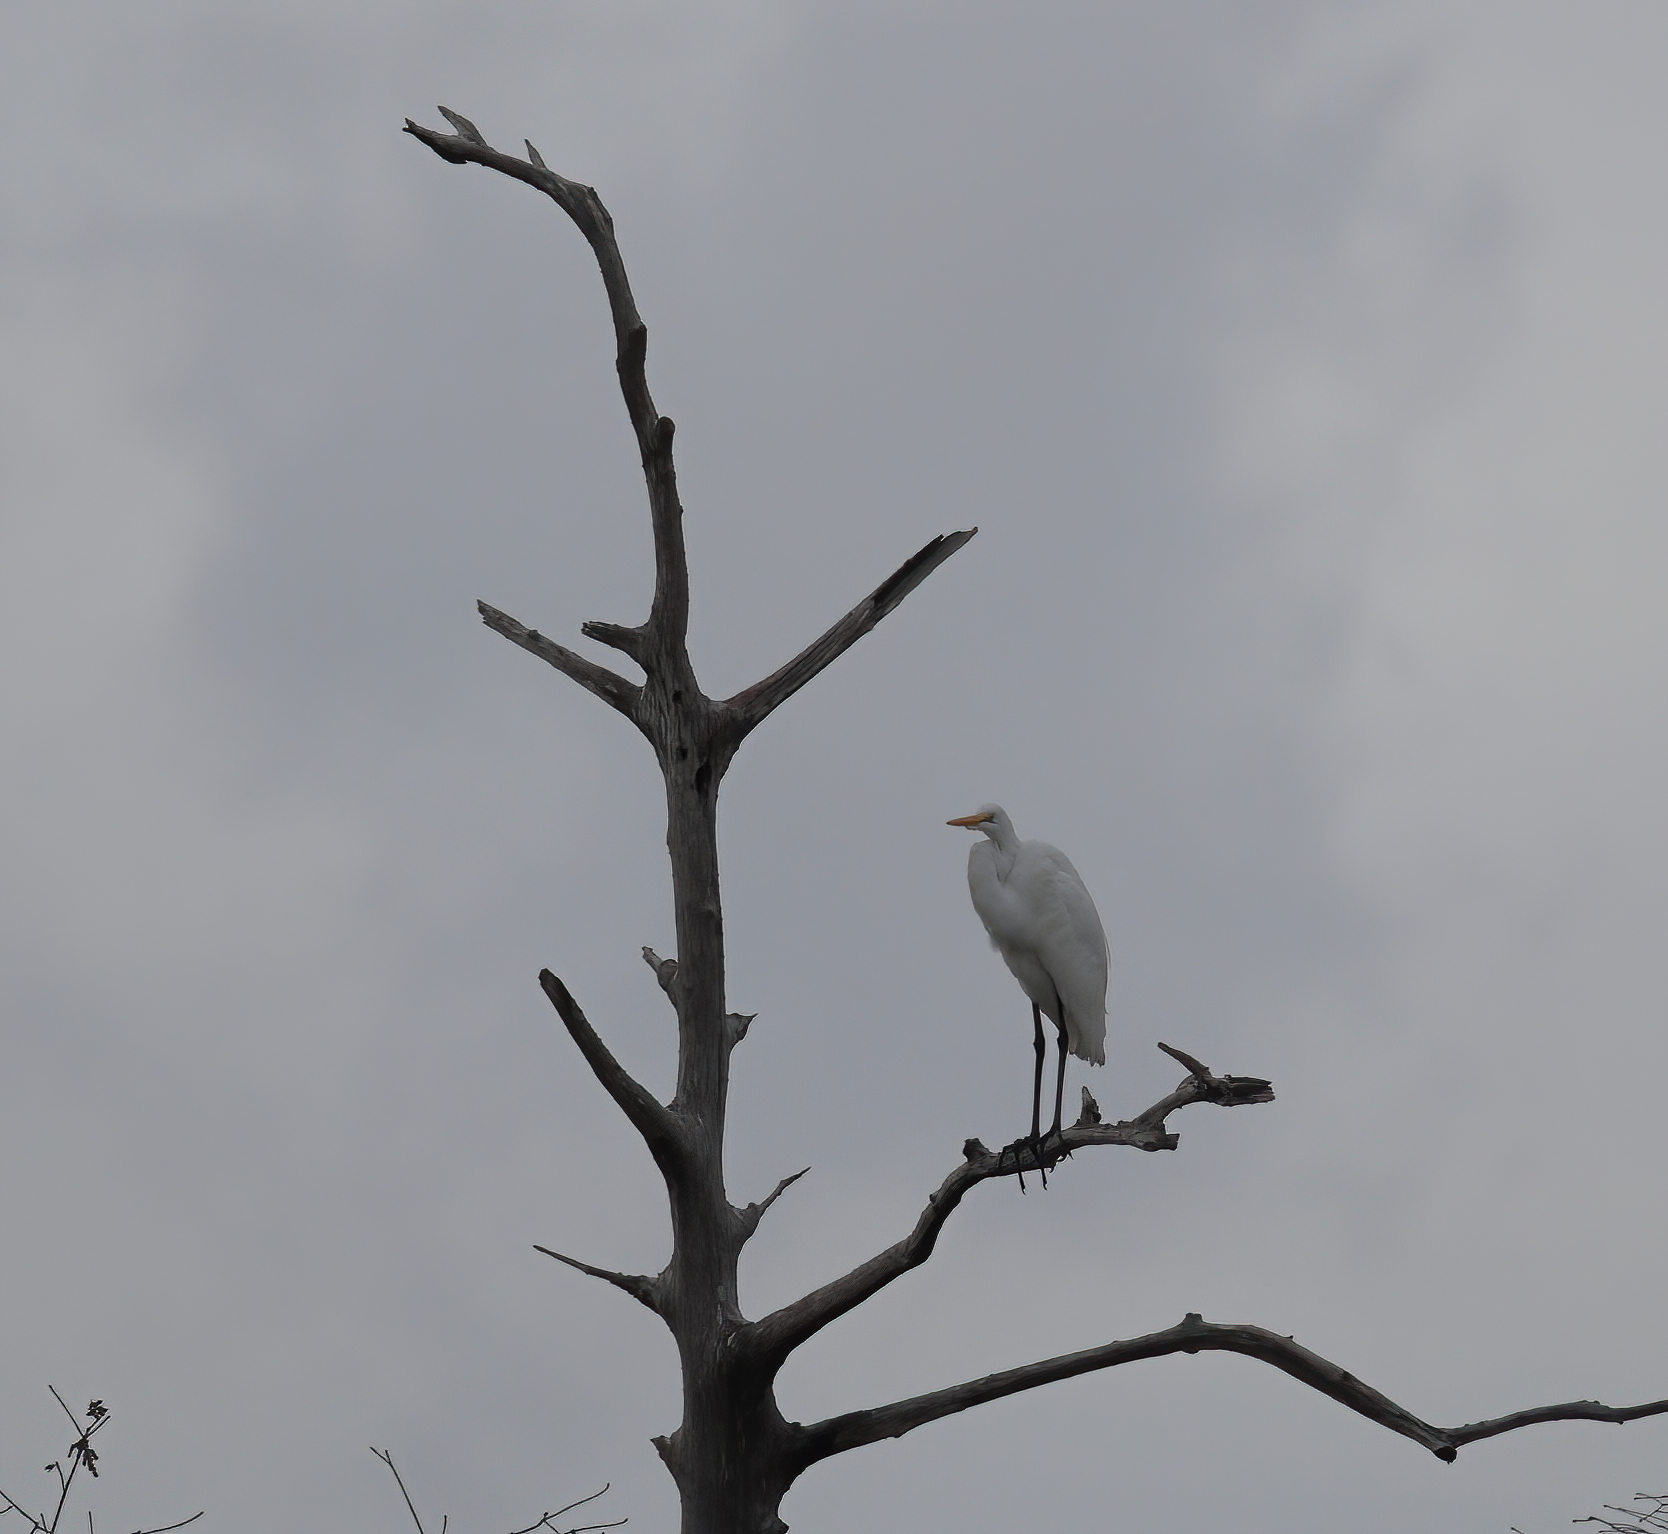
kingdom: Animalia
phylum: Chordata
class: Aves
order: Pelecaniformes
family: Ardeidae
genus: Ardea
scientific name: Ardea alba
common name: Great egret
